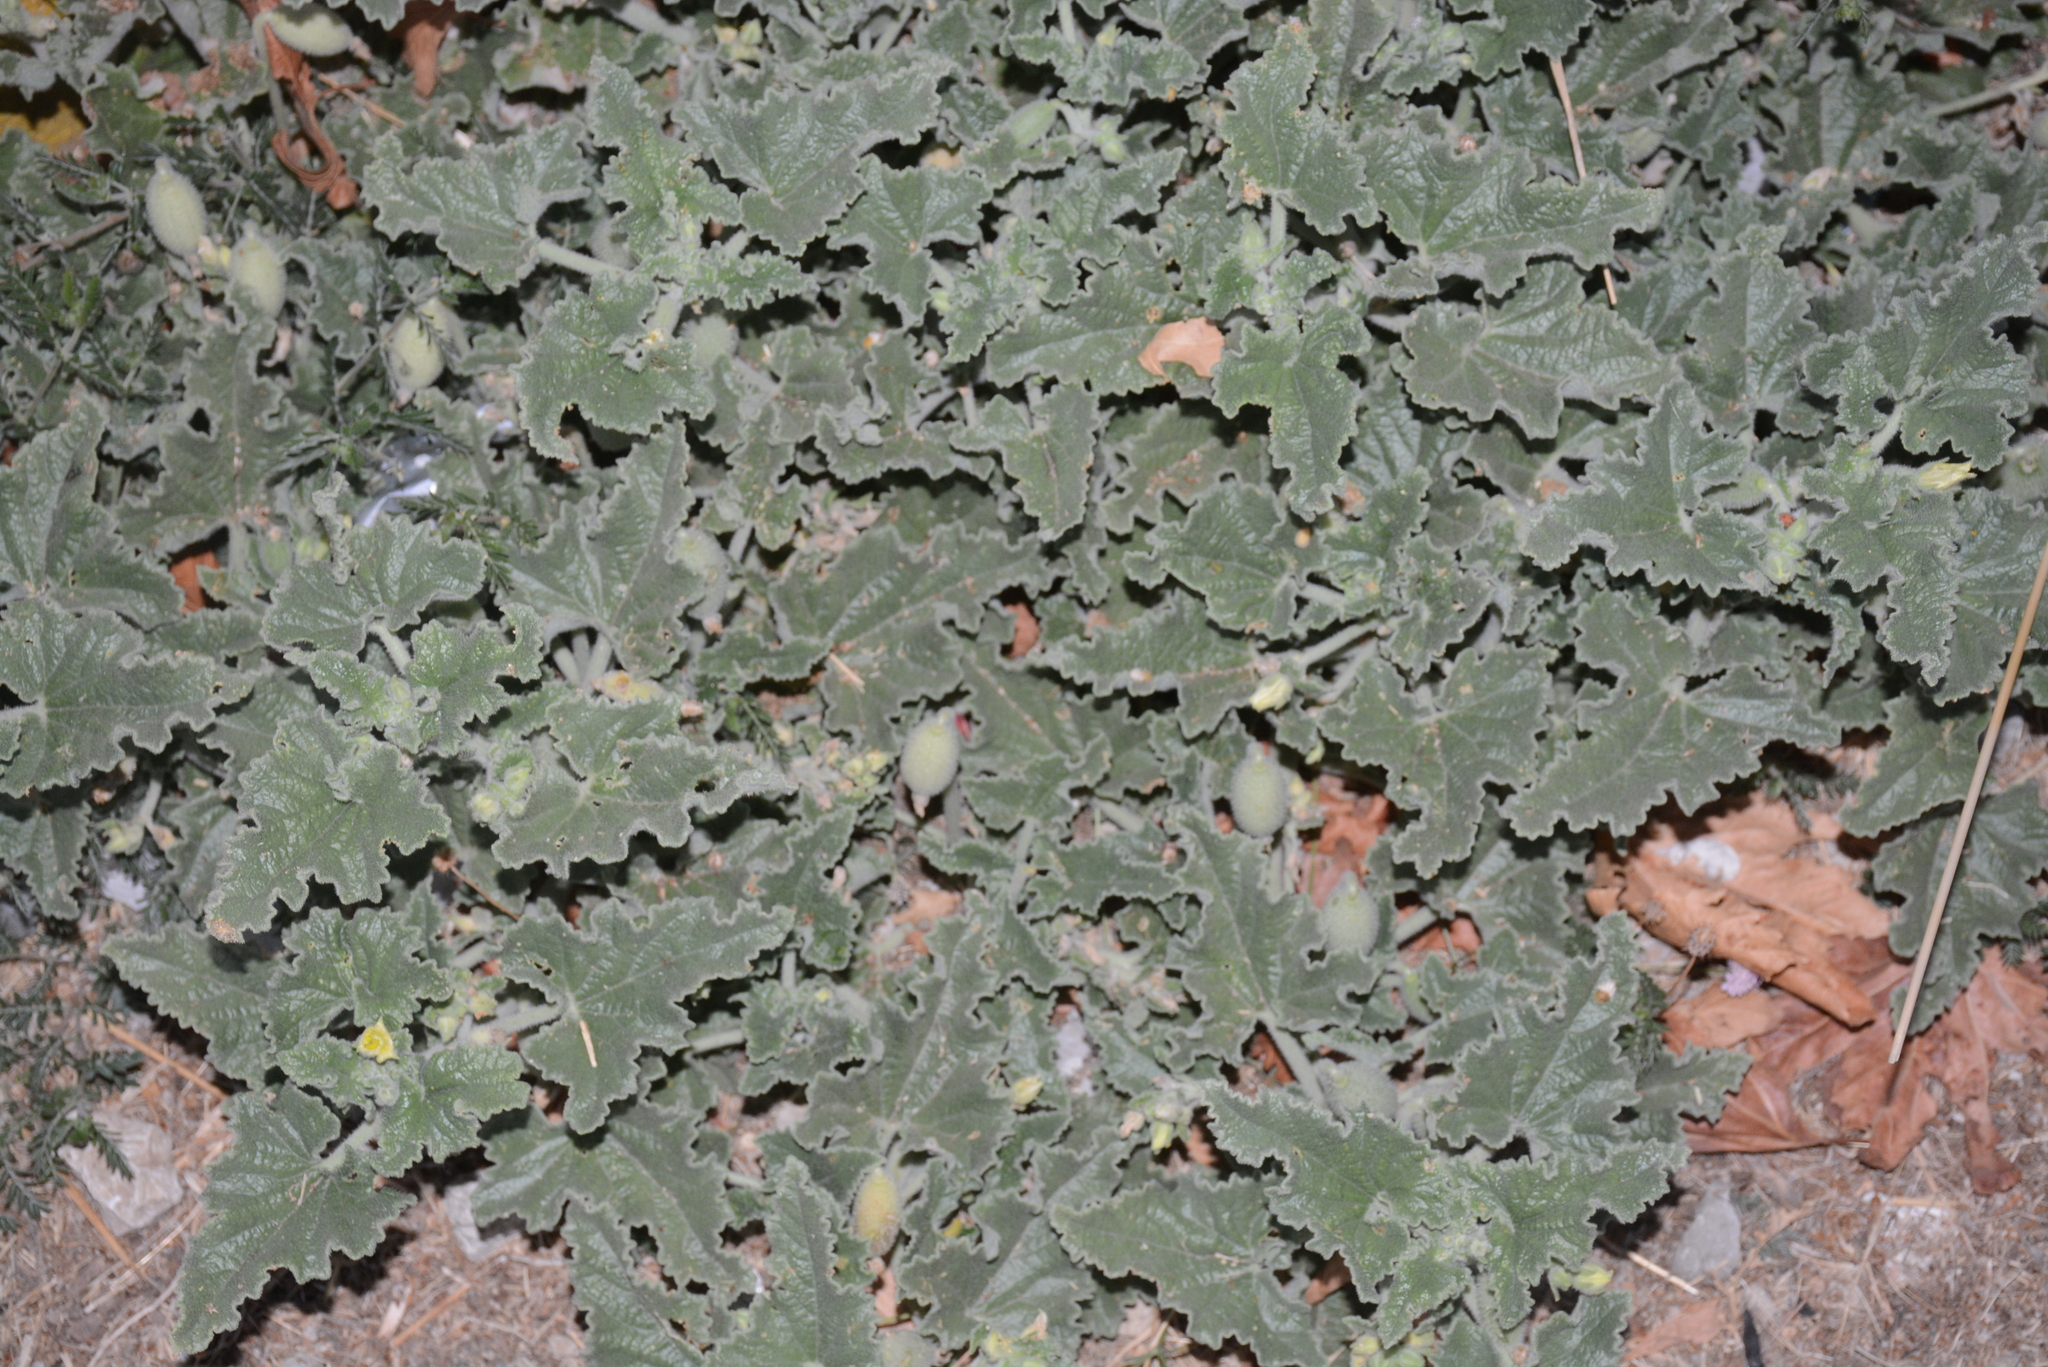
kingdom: Plantae
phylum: Tracheophyta
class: Magnoliopsida
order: Cucurbitales
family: Cucurbitaceae
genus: Ecballium
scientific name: Ecballium elaterium
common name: Squirting cucumber
